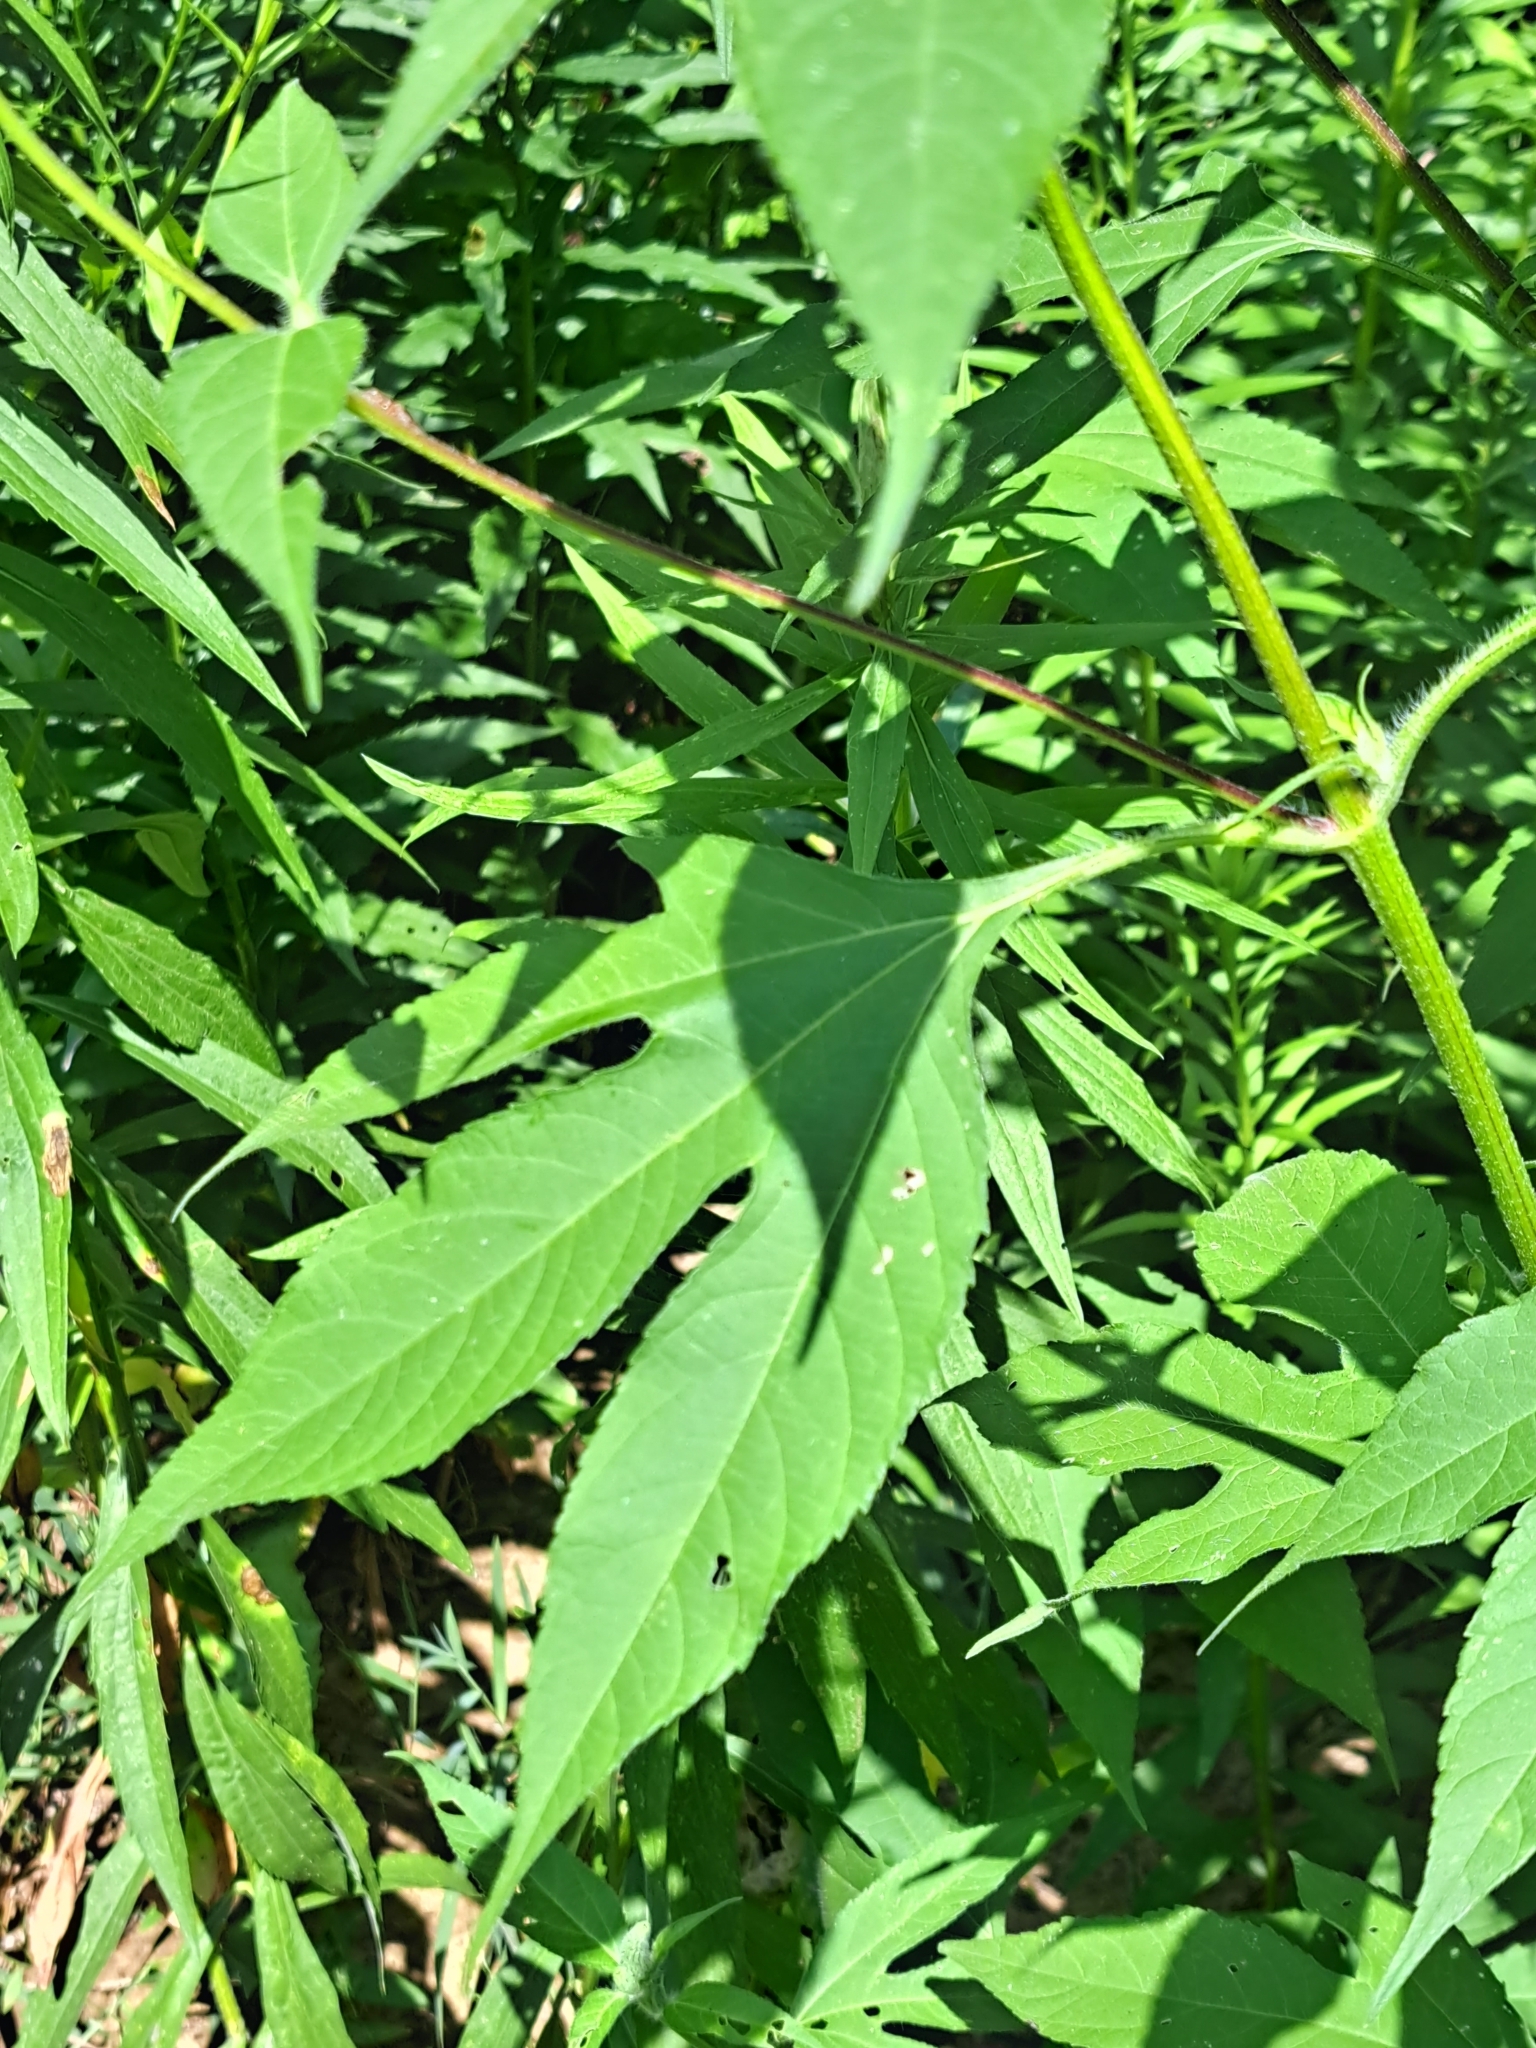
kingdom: Plantae
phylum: Tracheophyta
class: Magnoliopsida
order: Asterales
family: Asteraceae
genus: Ambrosia
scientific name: Ambrosia trifida
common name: Giant ragweed
